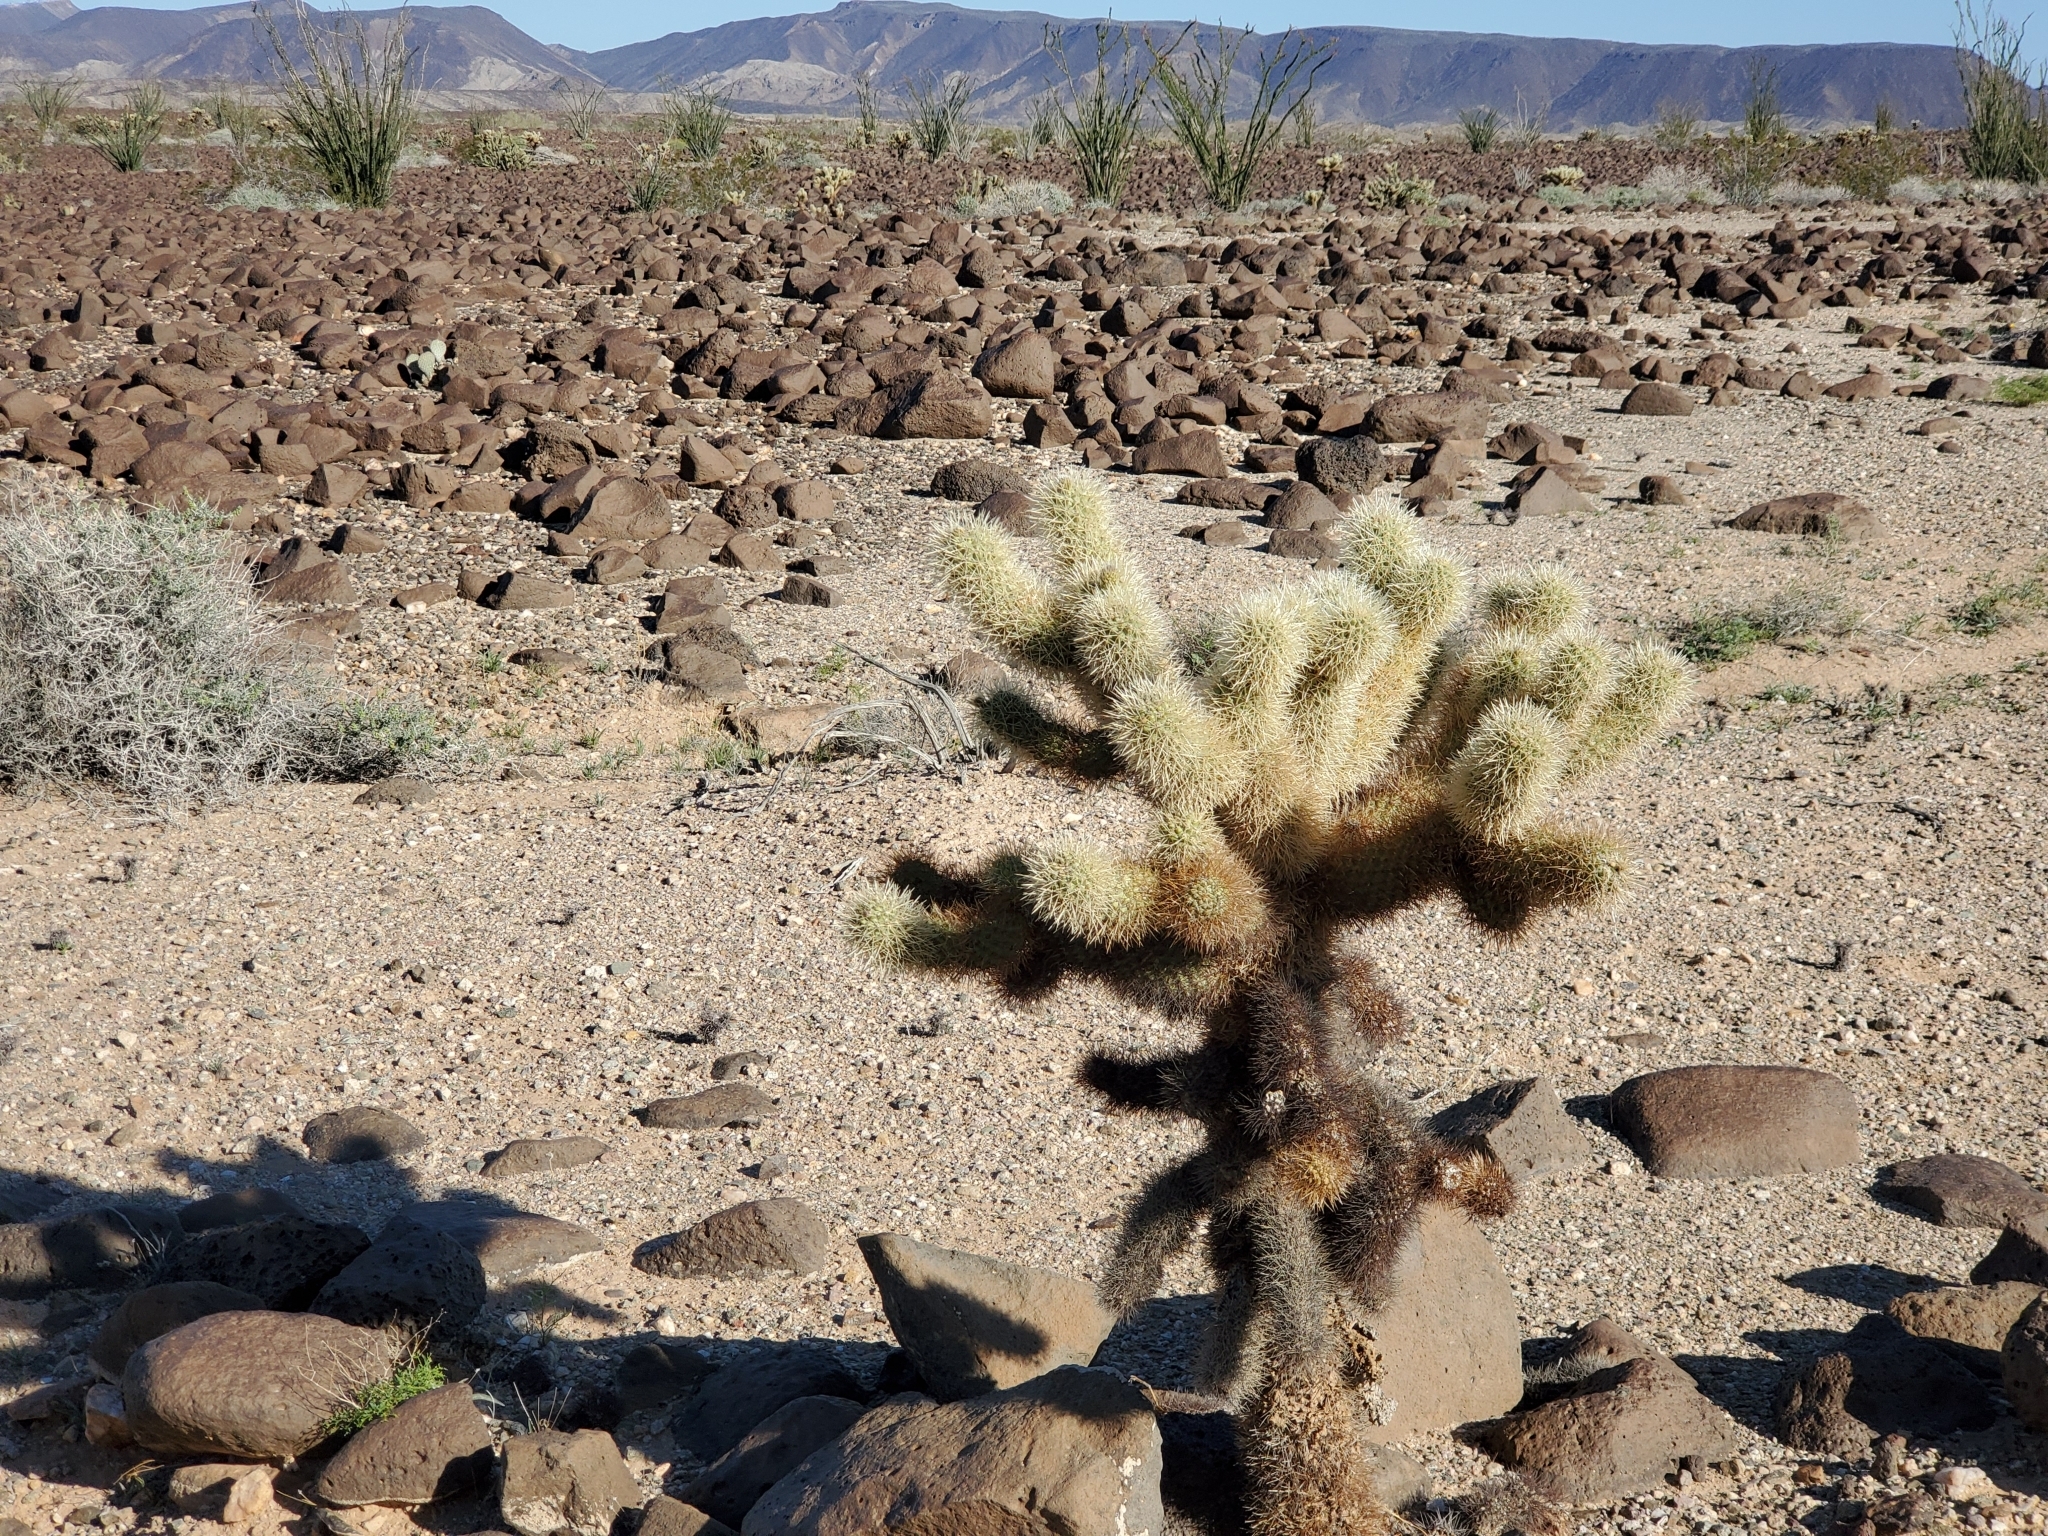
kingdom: Plantae
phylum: Tracheophyta
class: Magnoliopsida
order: Caryophyllales
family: Cactaceae
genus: Cylindropuntia
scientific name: Cylindropuntia fosbergii
